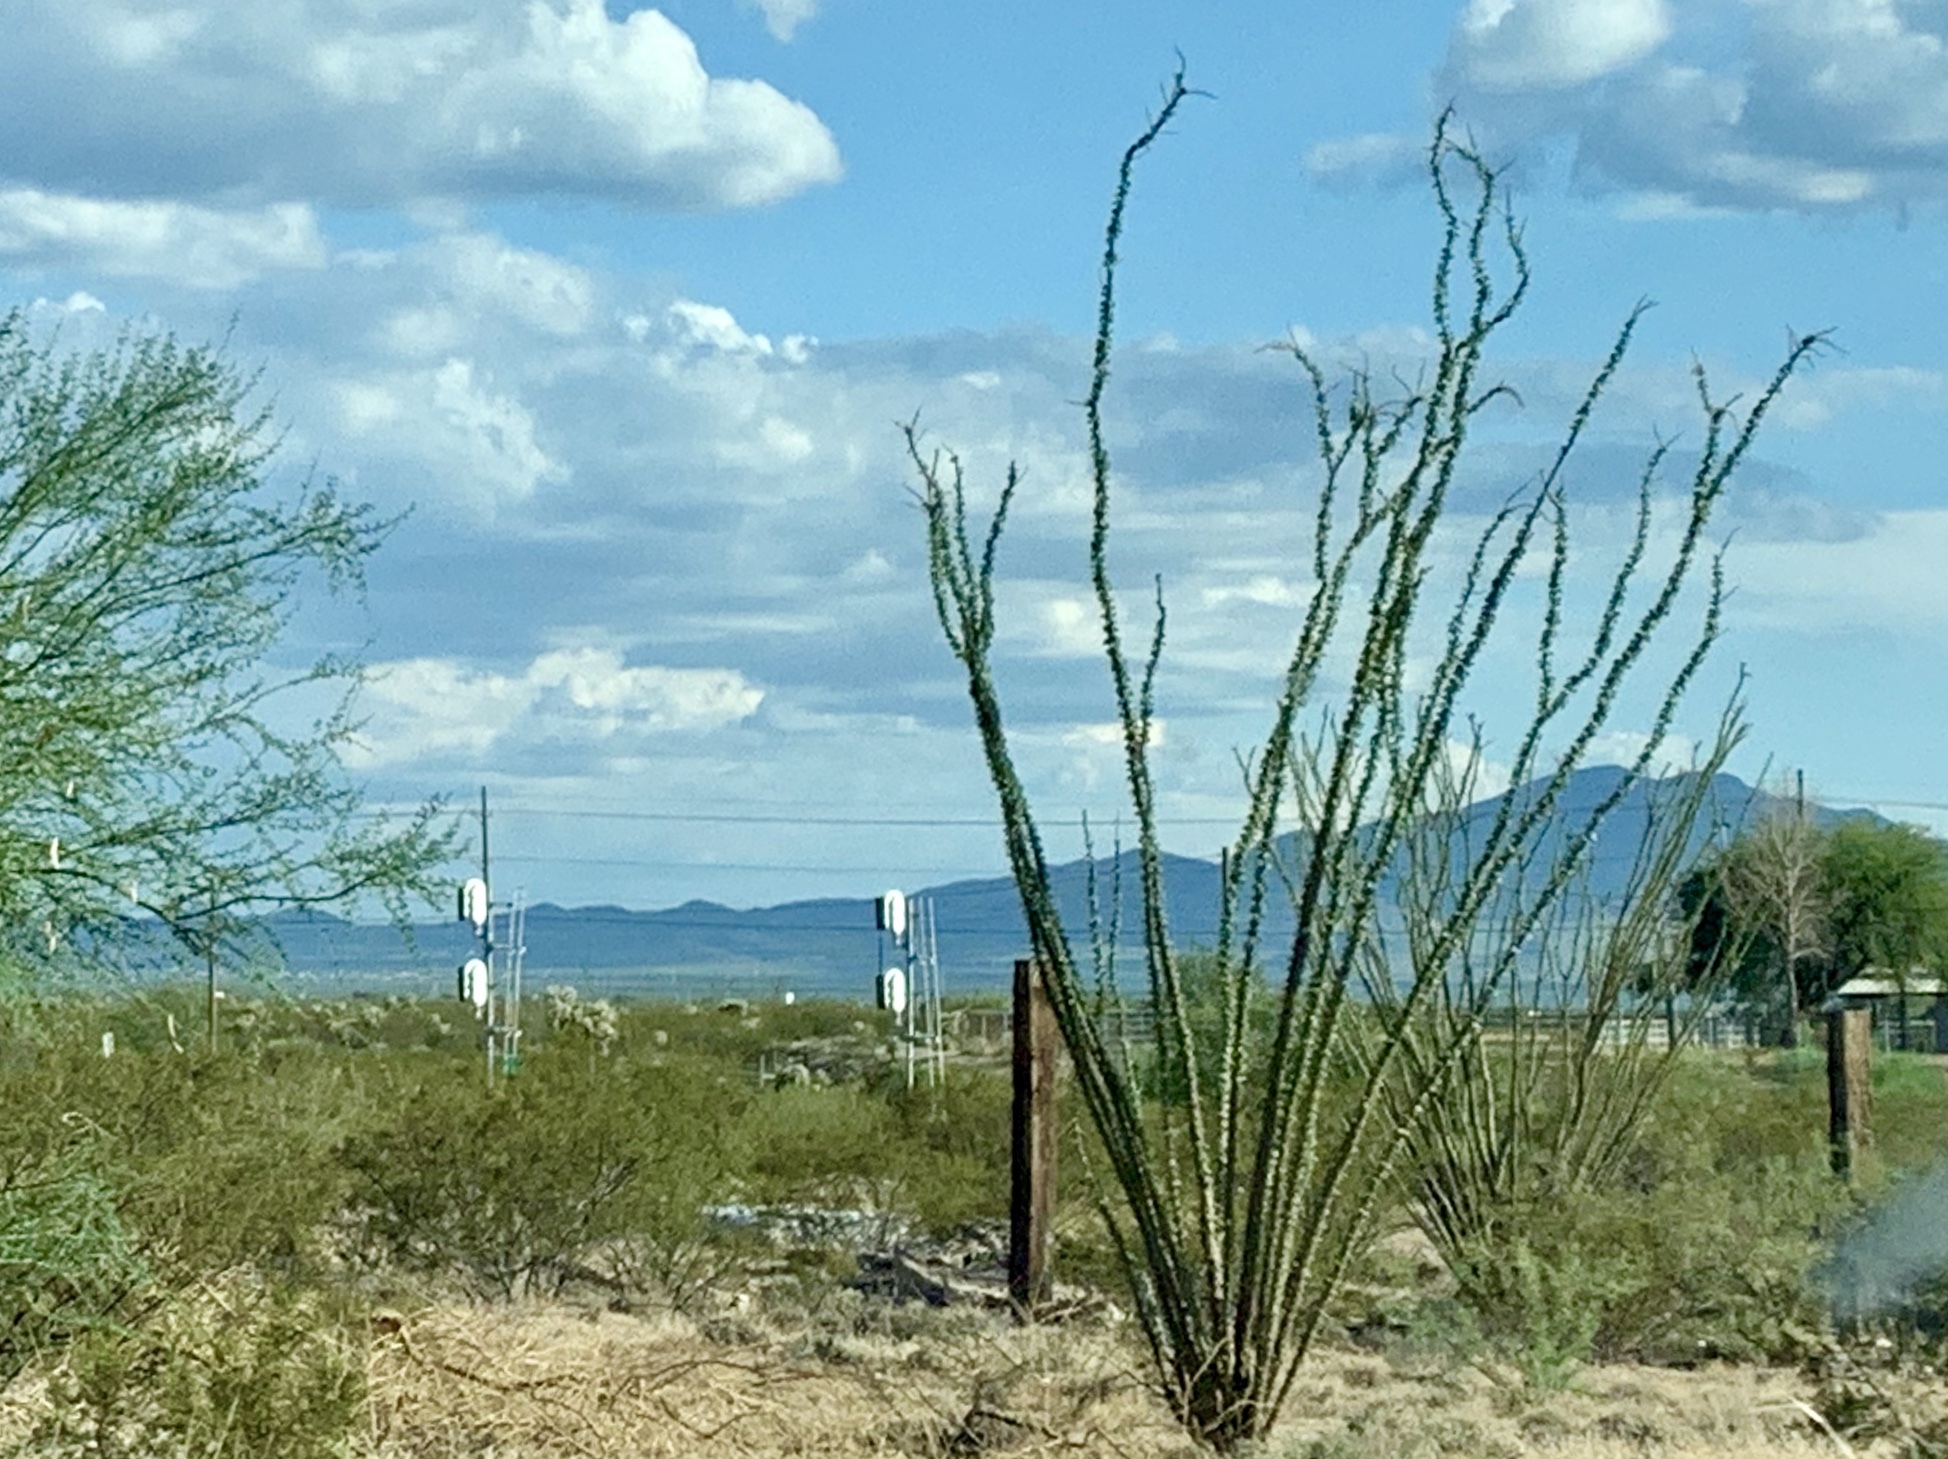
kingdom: Plantae
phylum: Tracheophyta
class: Magnoliopsida
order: Ericales
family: Fouquieriaceae
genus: Fouquieria
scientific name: Fouquieria splendens
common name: Vine-cactus
